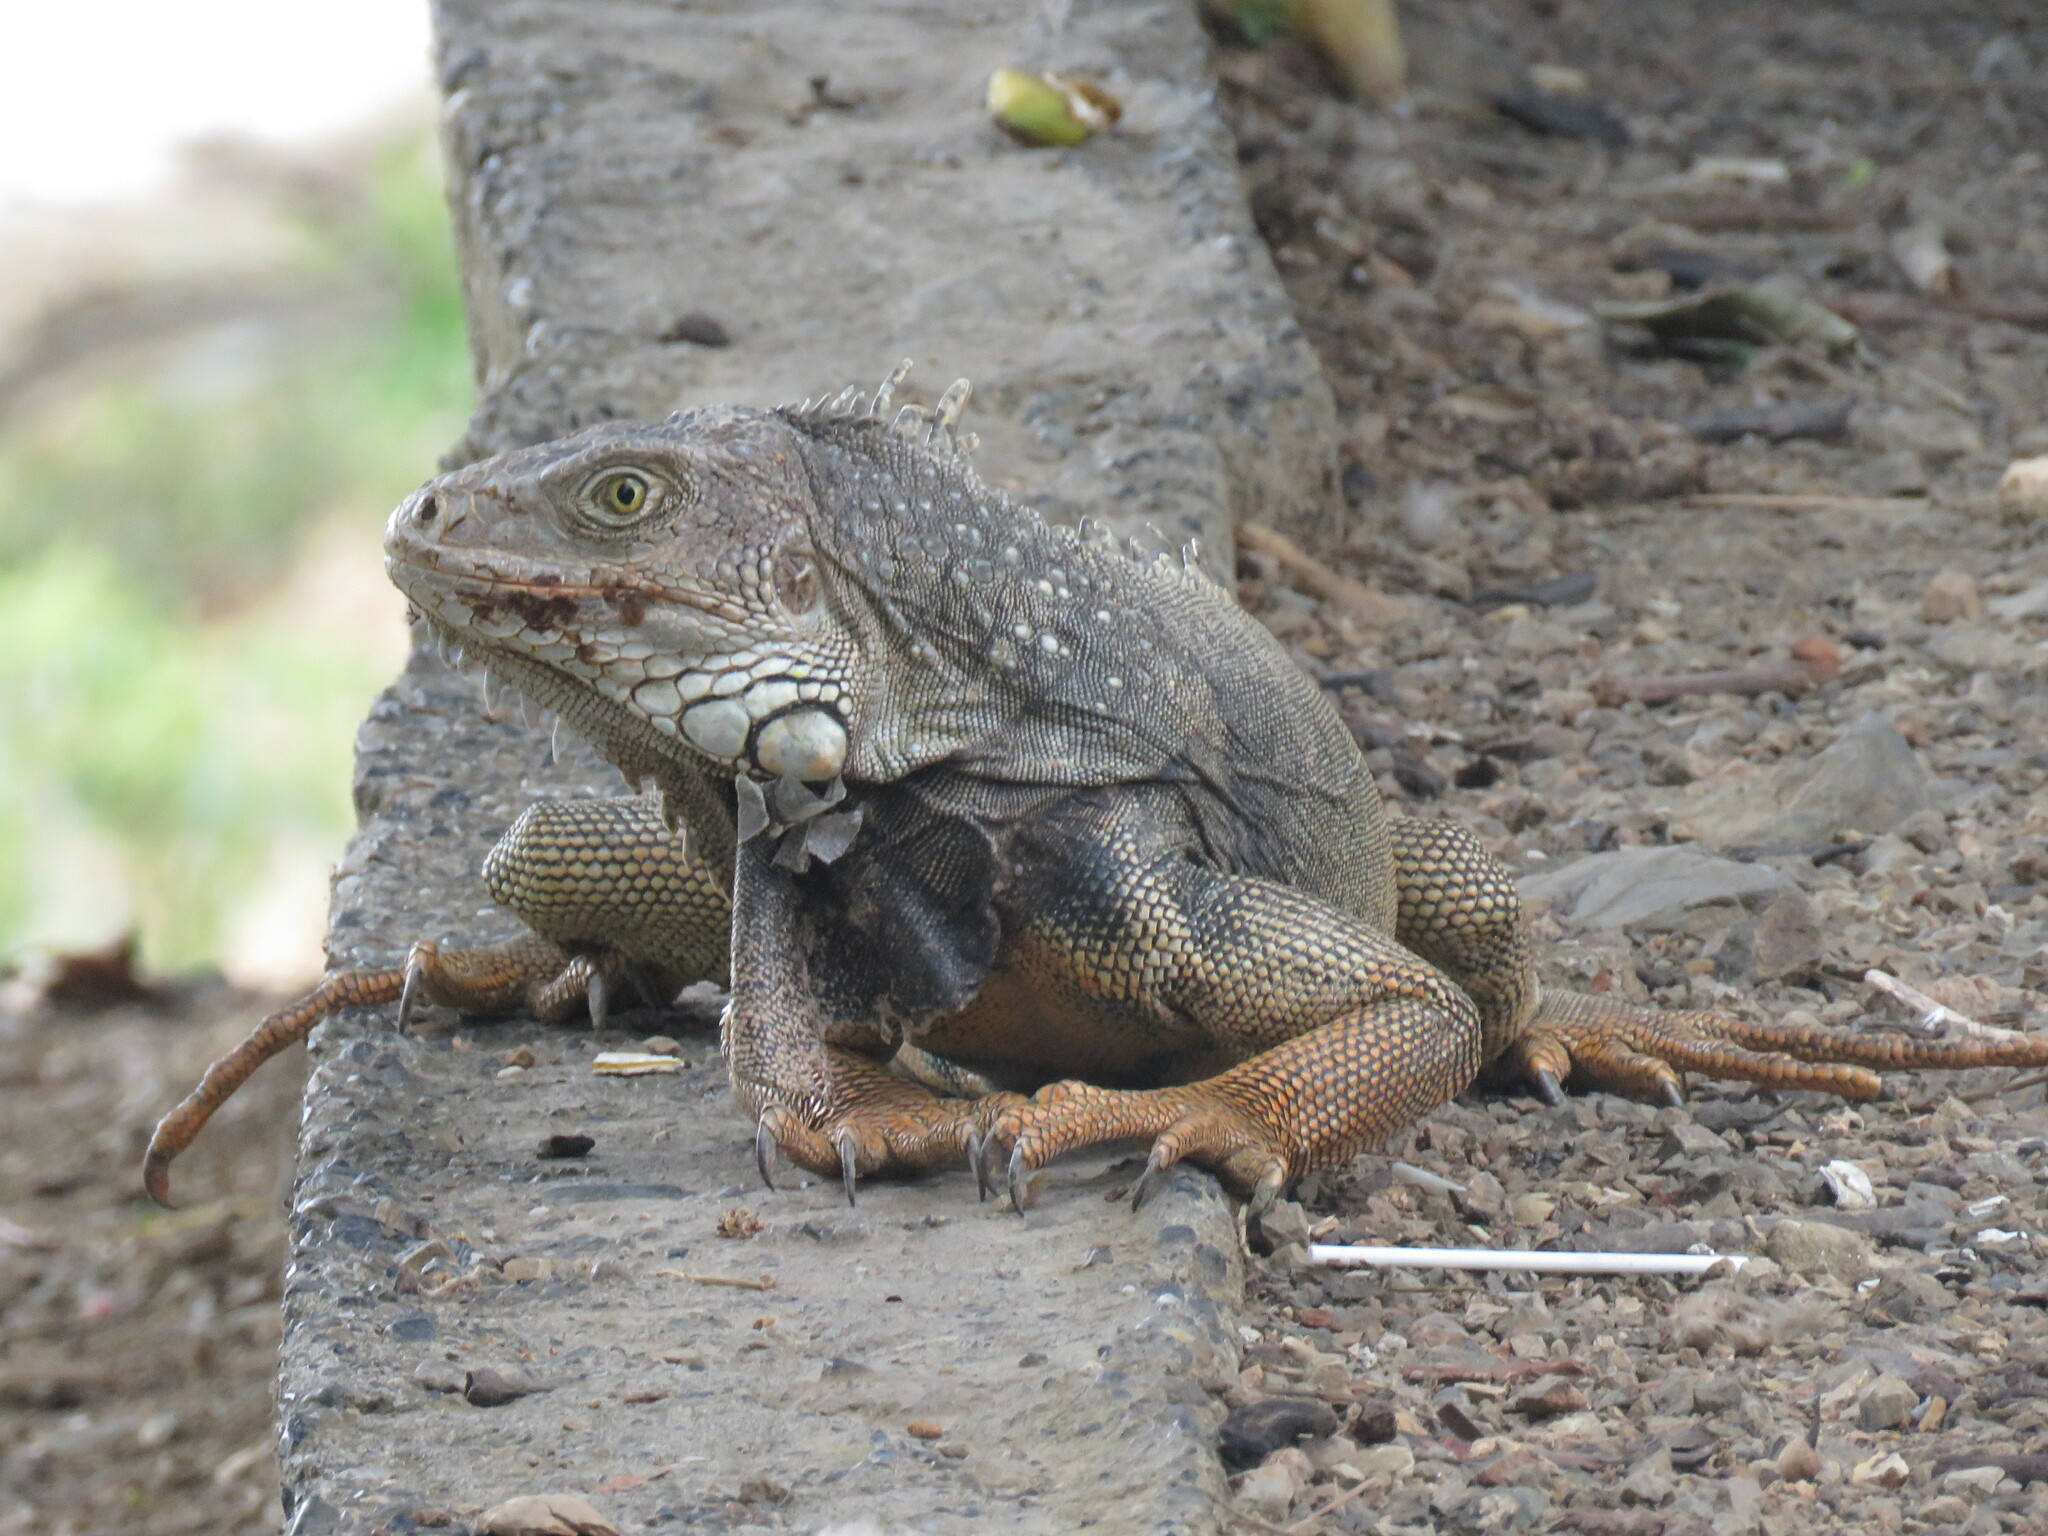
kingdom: Animalia
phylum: Chordata
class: Squamata
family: Iguanidae
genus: Iguana
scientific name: Iguana iguana
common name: Green iguana
